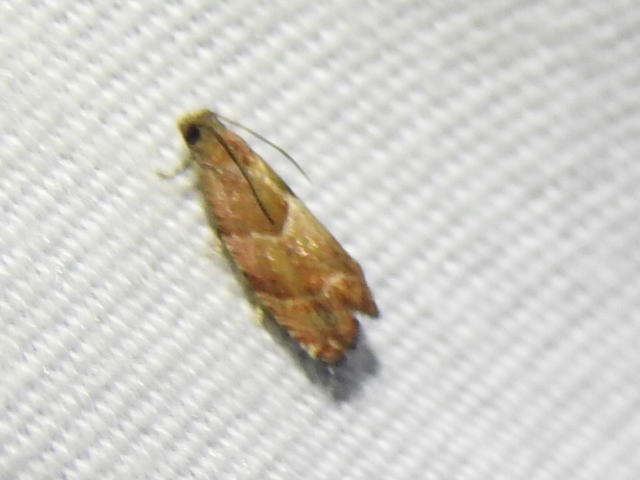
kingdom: Animalia
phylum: Arthropoda
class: Insecta
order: Lepidoptera
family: Tortricidae
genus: Gypsonoma
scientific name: Gypsonoma salicicolana
